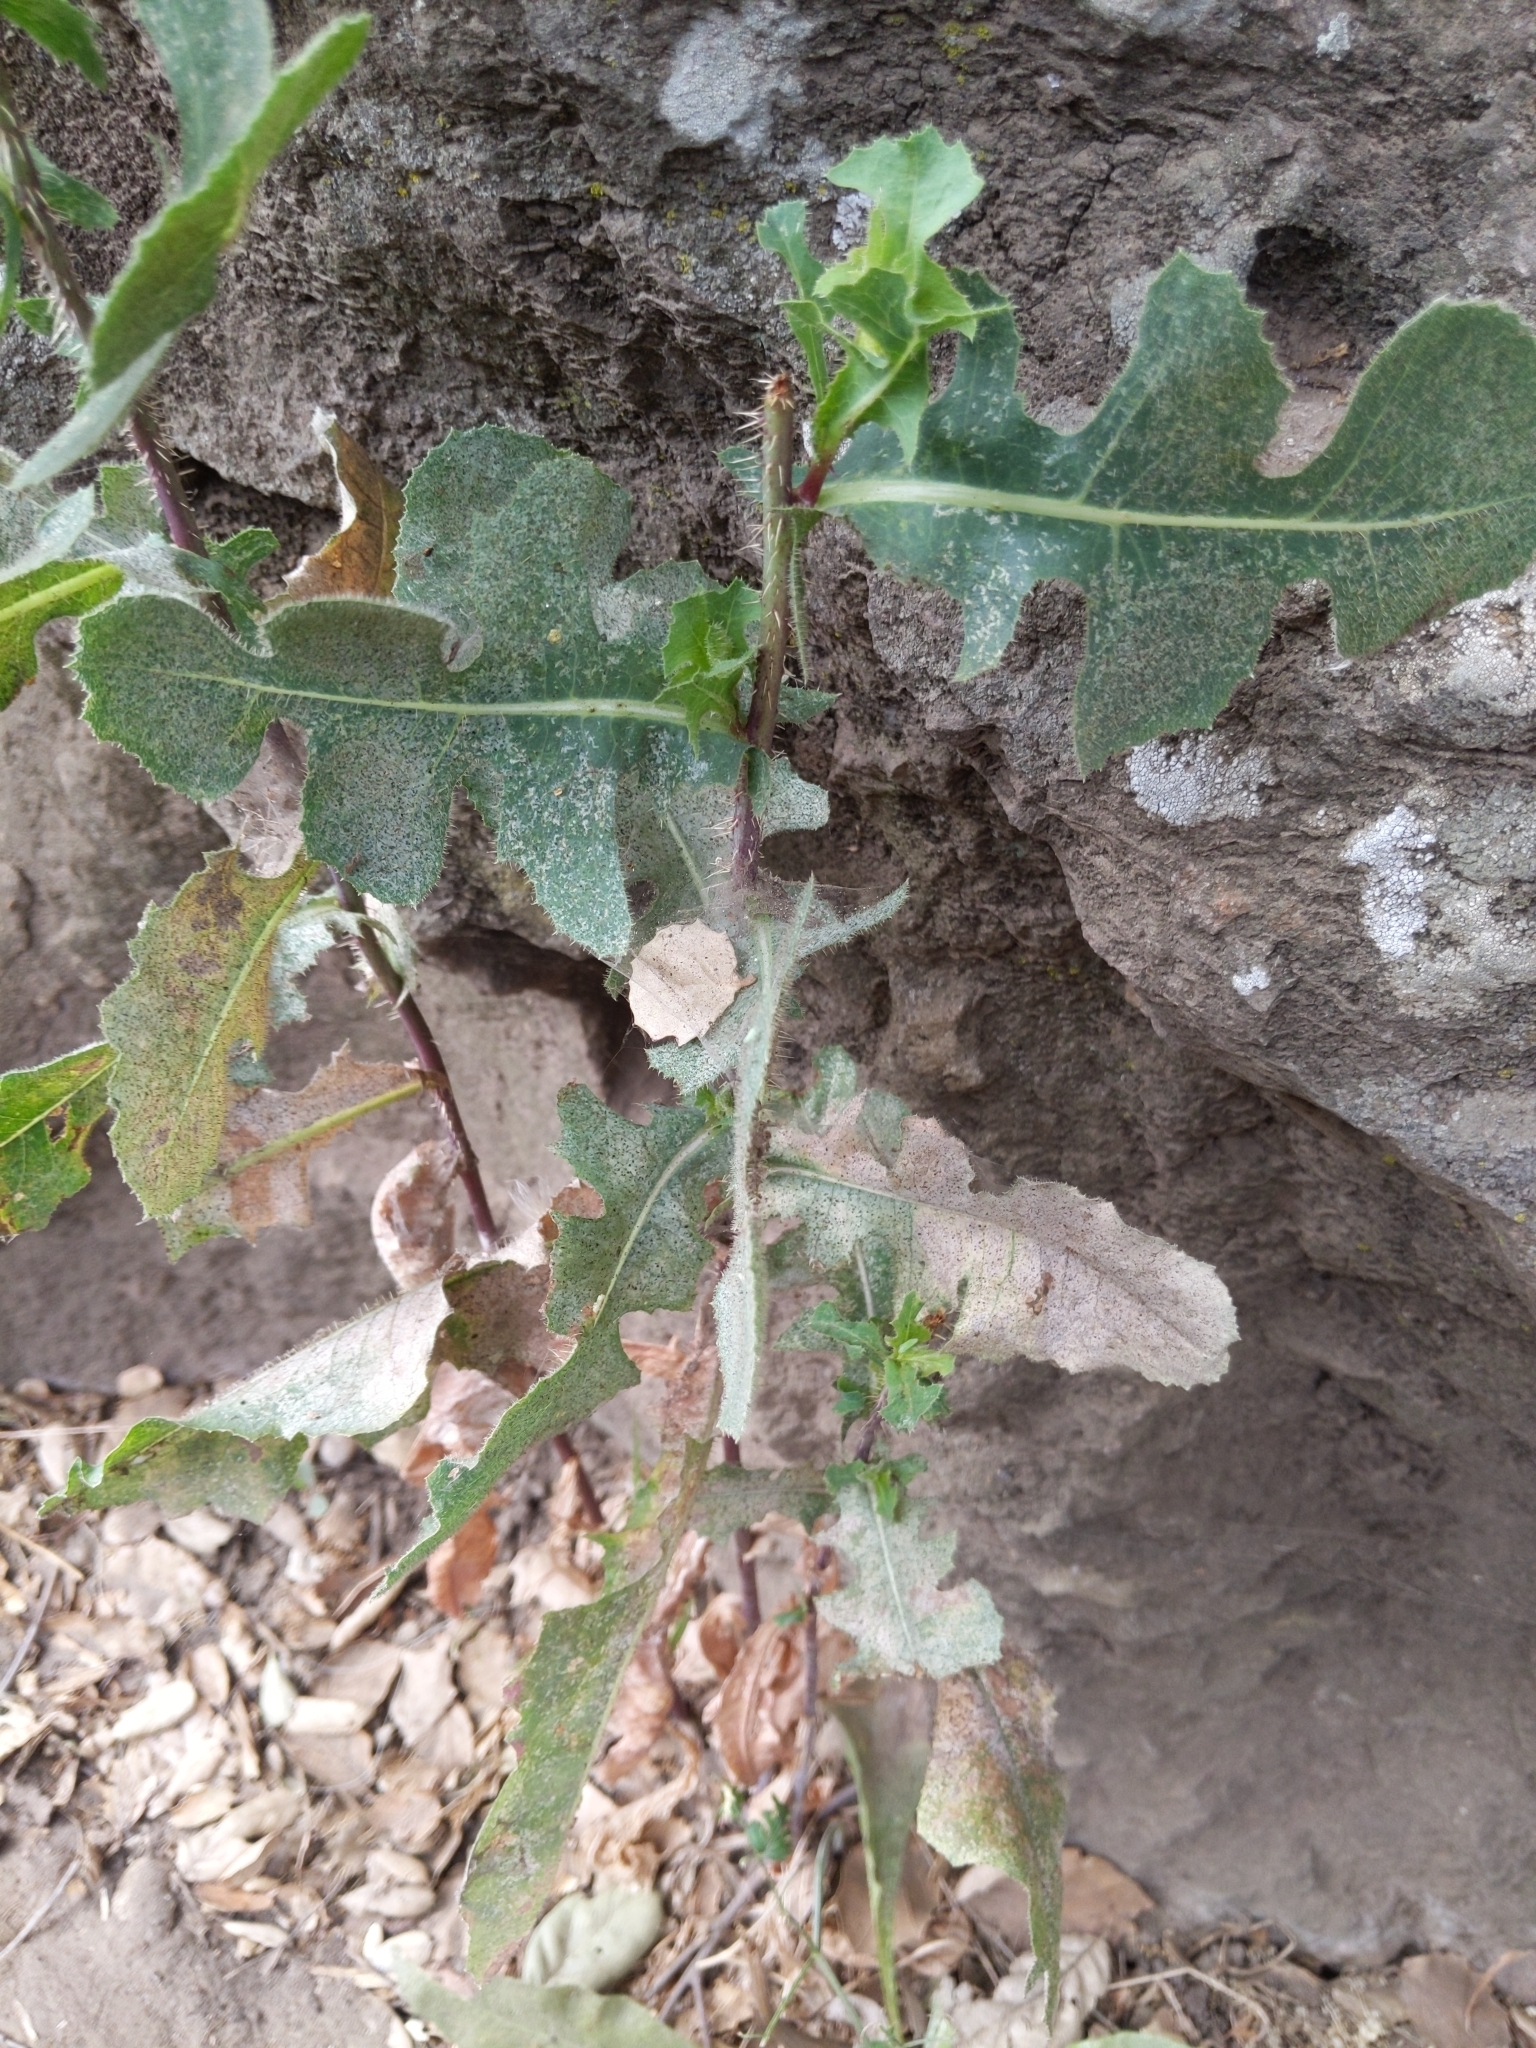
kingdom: Plantae
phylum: Tracheophyta
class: Magnoliopsida
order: Asterales
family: Asteraceae
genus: Lactuca
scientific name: Lactuca serriola
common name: Prickly lettuce
